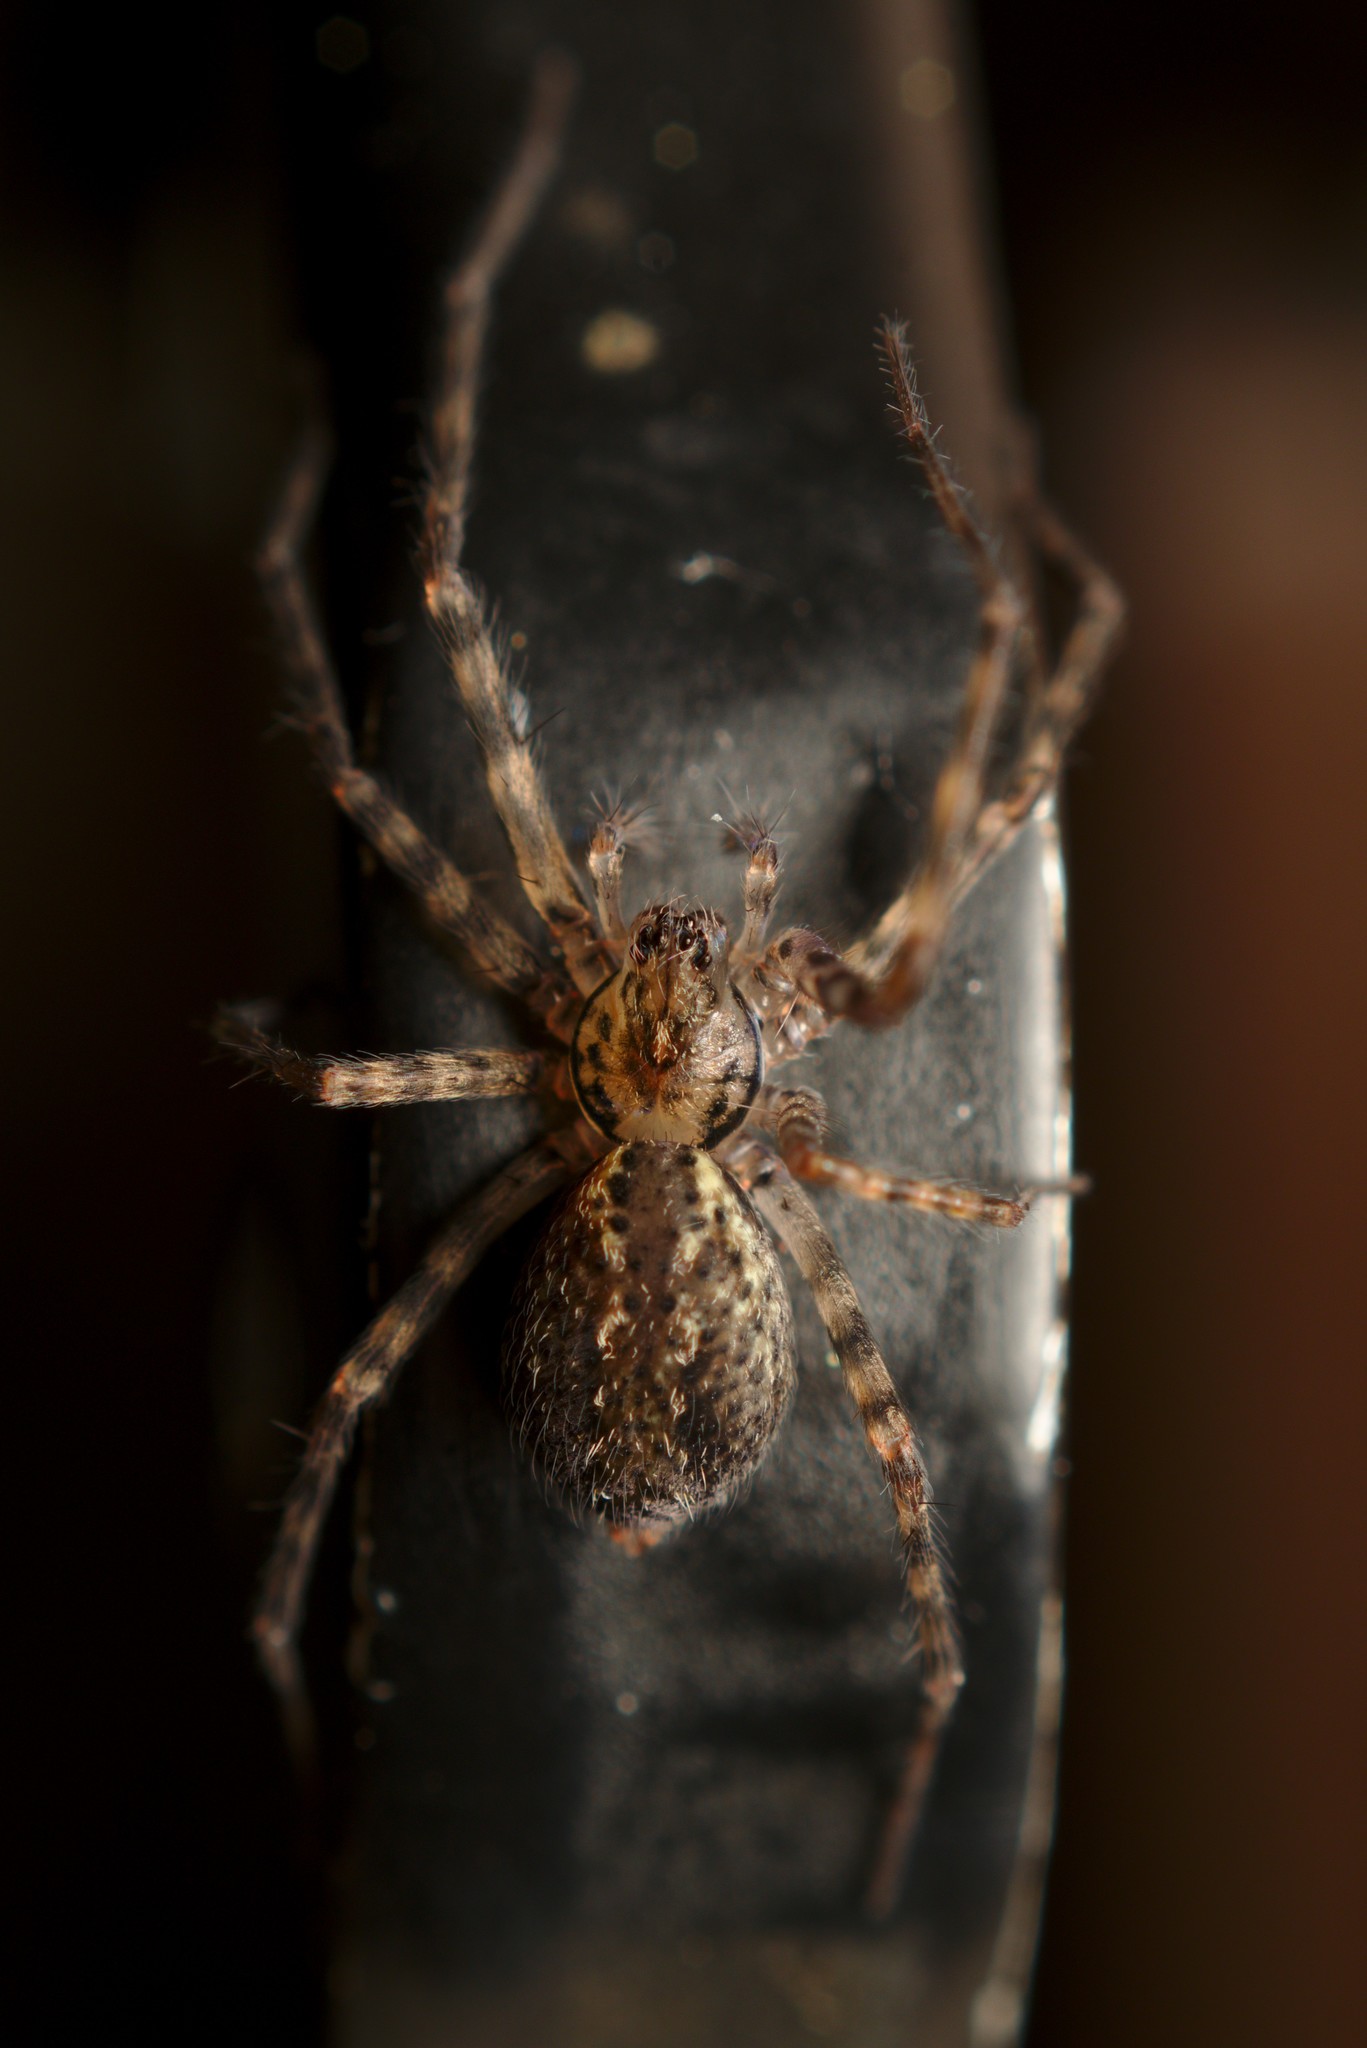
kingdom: Animalia
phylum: Arthropoda
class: Arachnida
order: Araneae
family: Stiphidiidae
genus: Stiphidion
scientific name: Stiphidion facetum
